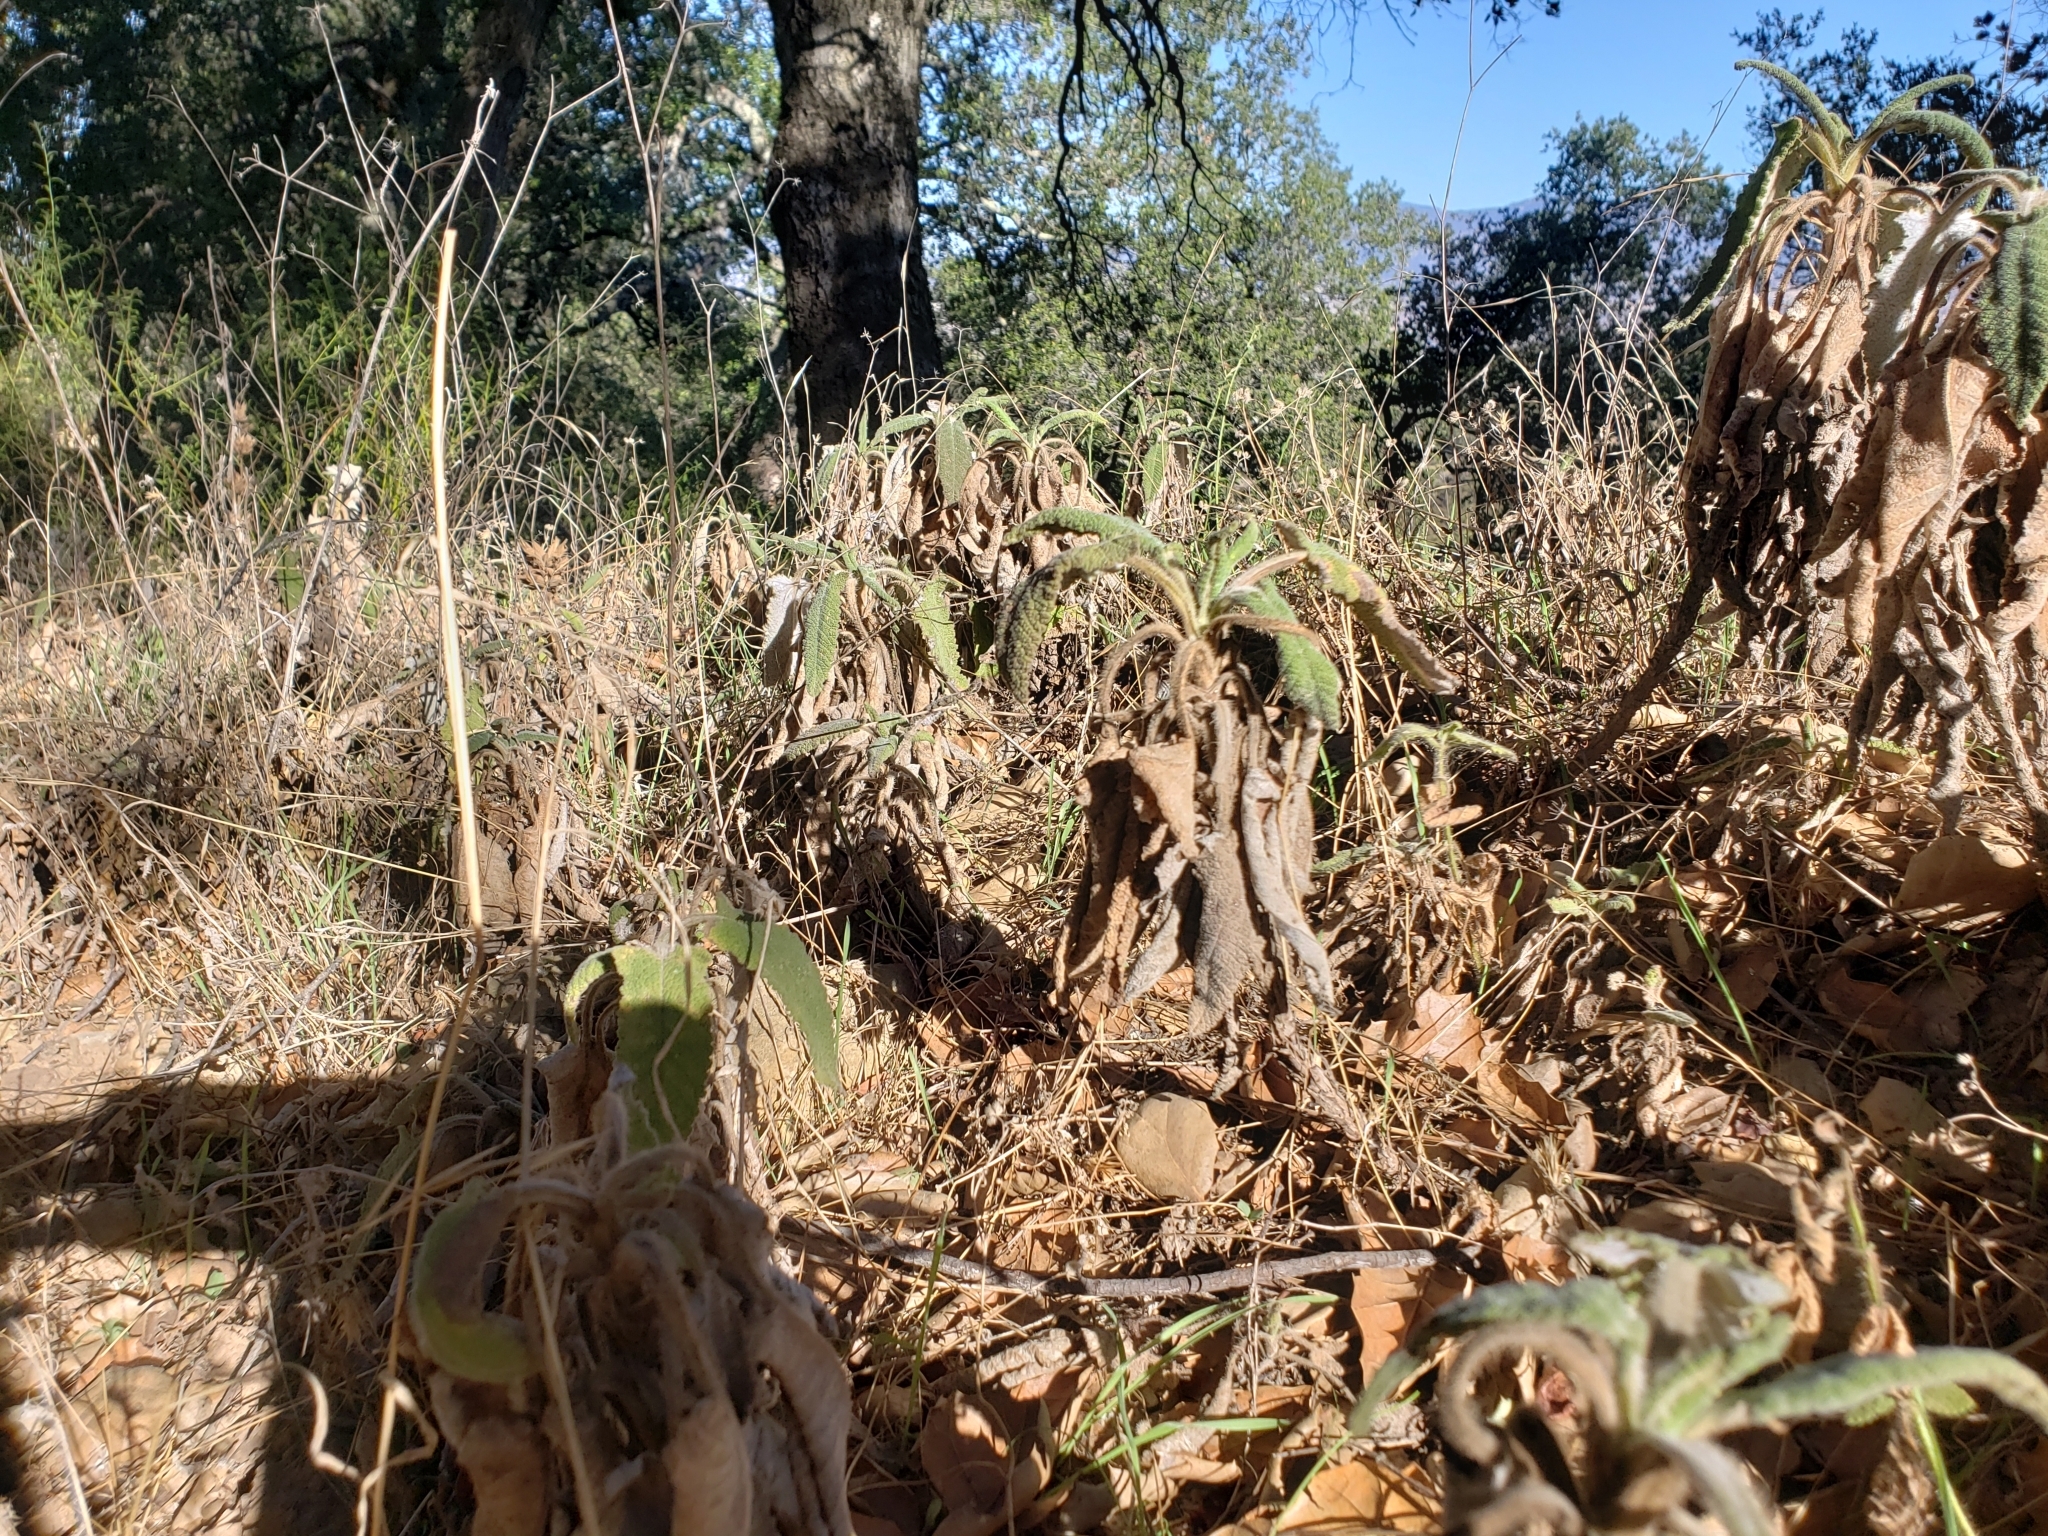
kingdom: Plantae
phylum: Tracheophyta
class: Magnoliopsida
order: Lamiales
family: Lamiaceae
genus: Salvia
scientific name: Salvia spathacea
